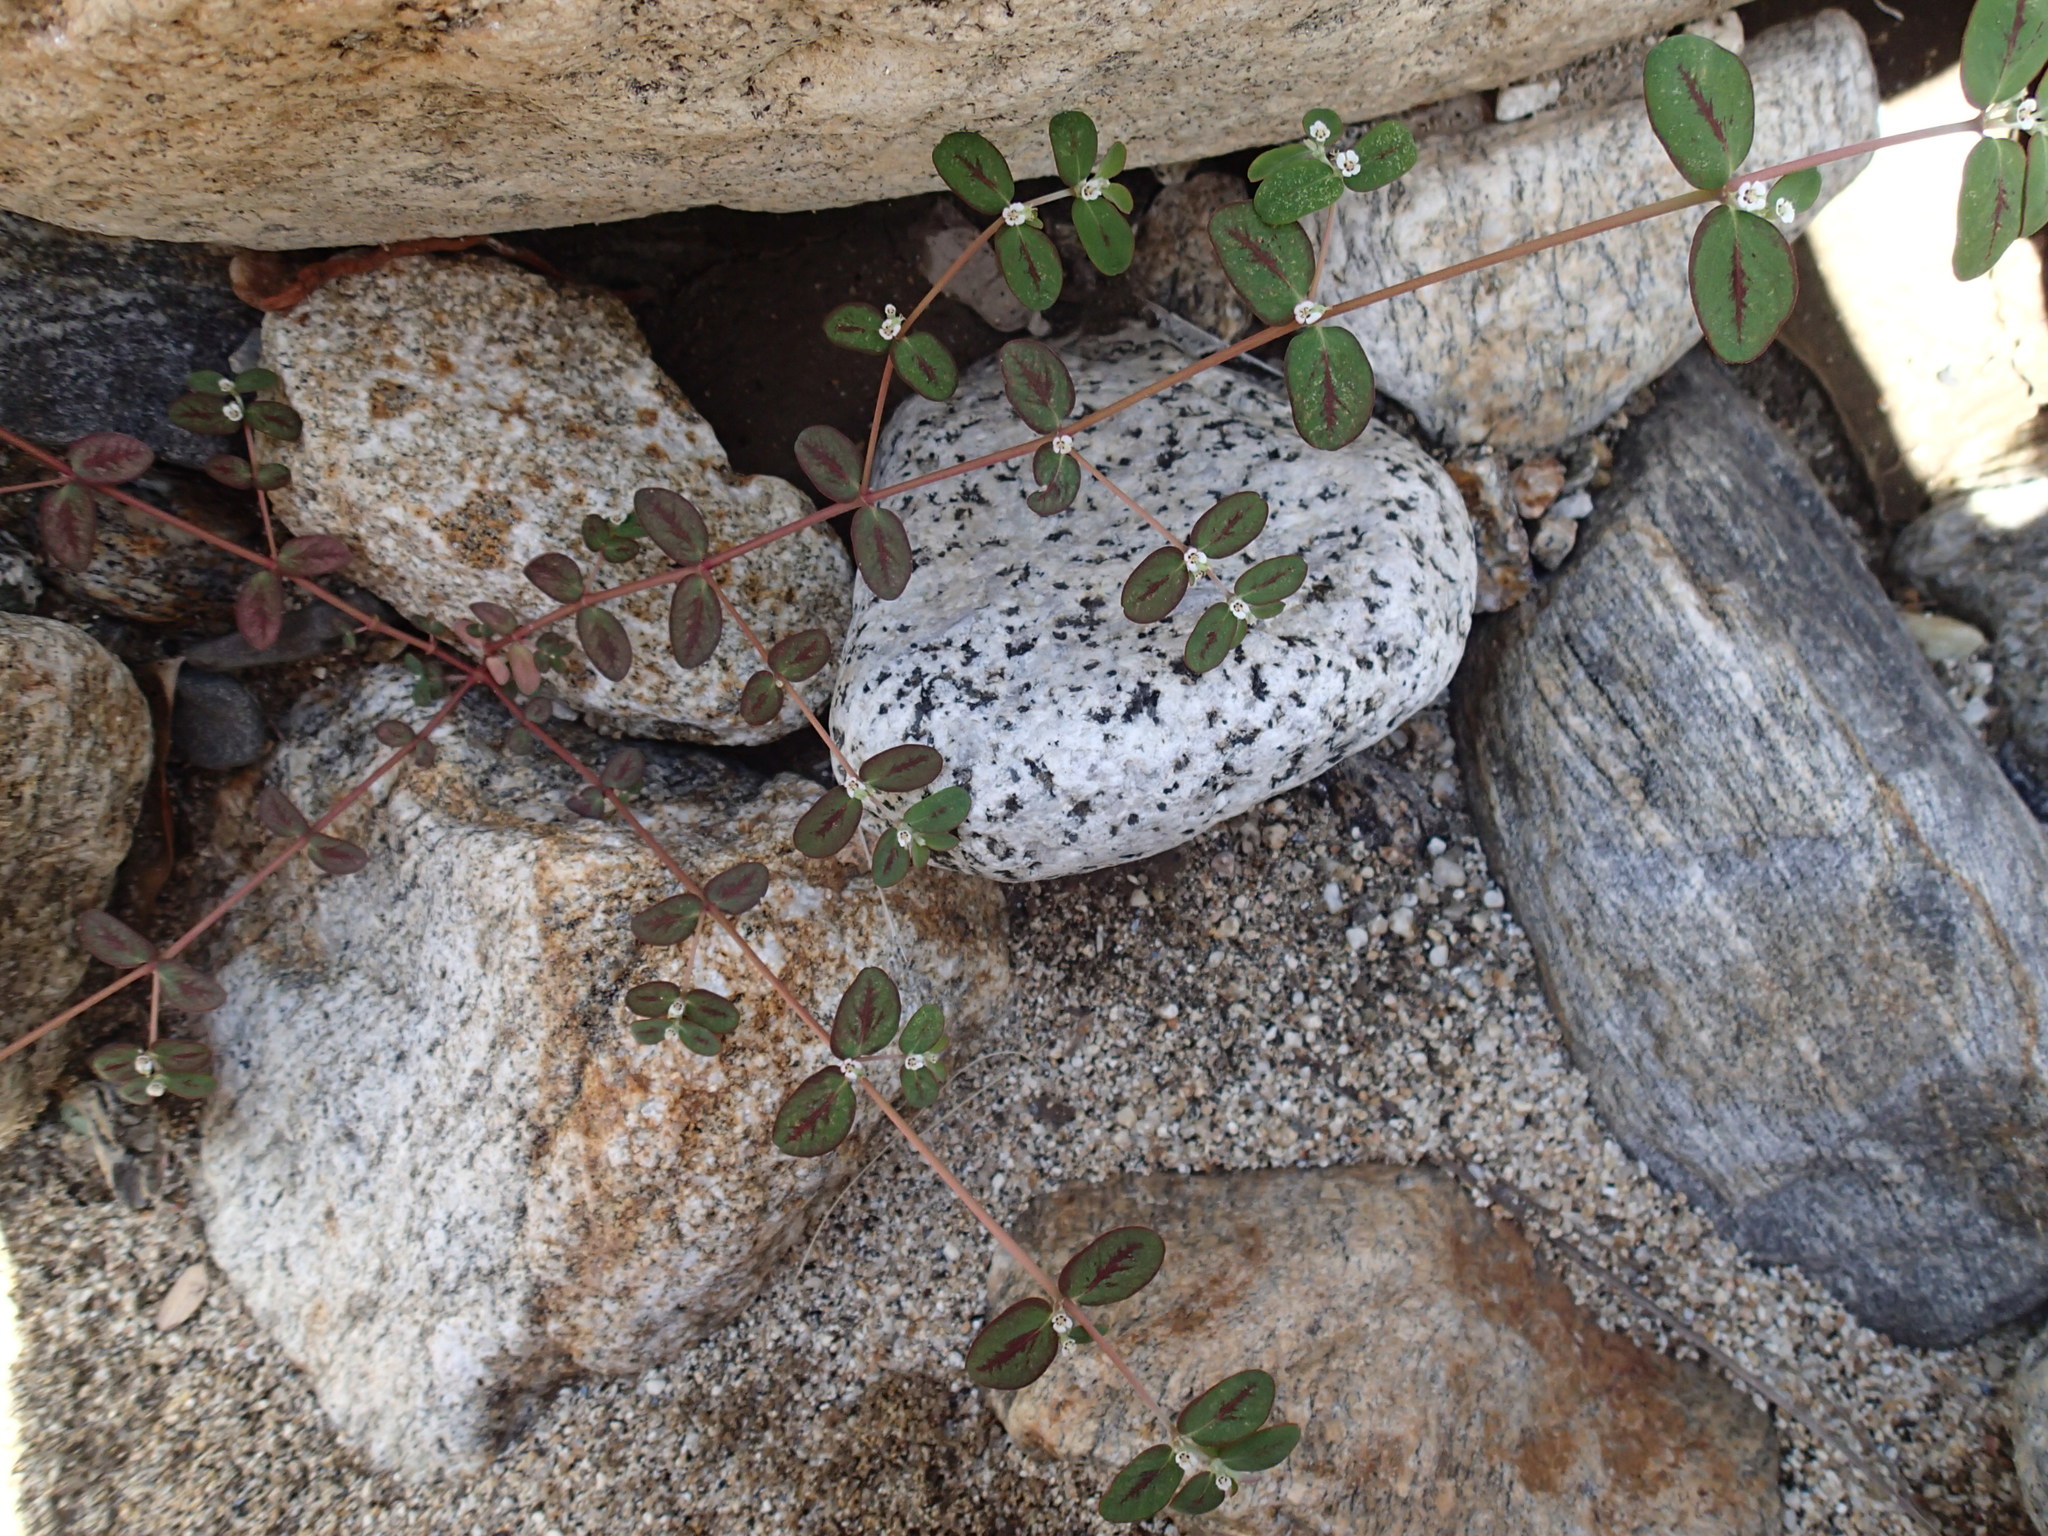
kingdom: Plantae
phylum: Tracheophyta
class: Magnoliopsida
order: Malpighiales
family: Euphorbiaceae
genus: Euphorbia
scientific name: Euphorbia pediculifera
